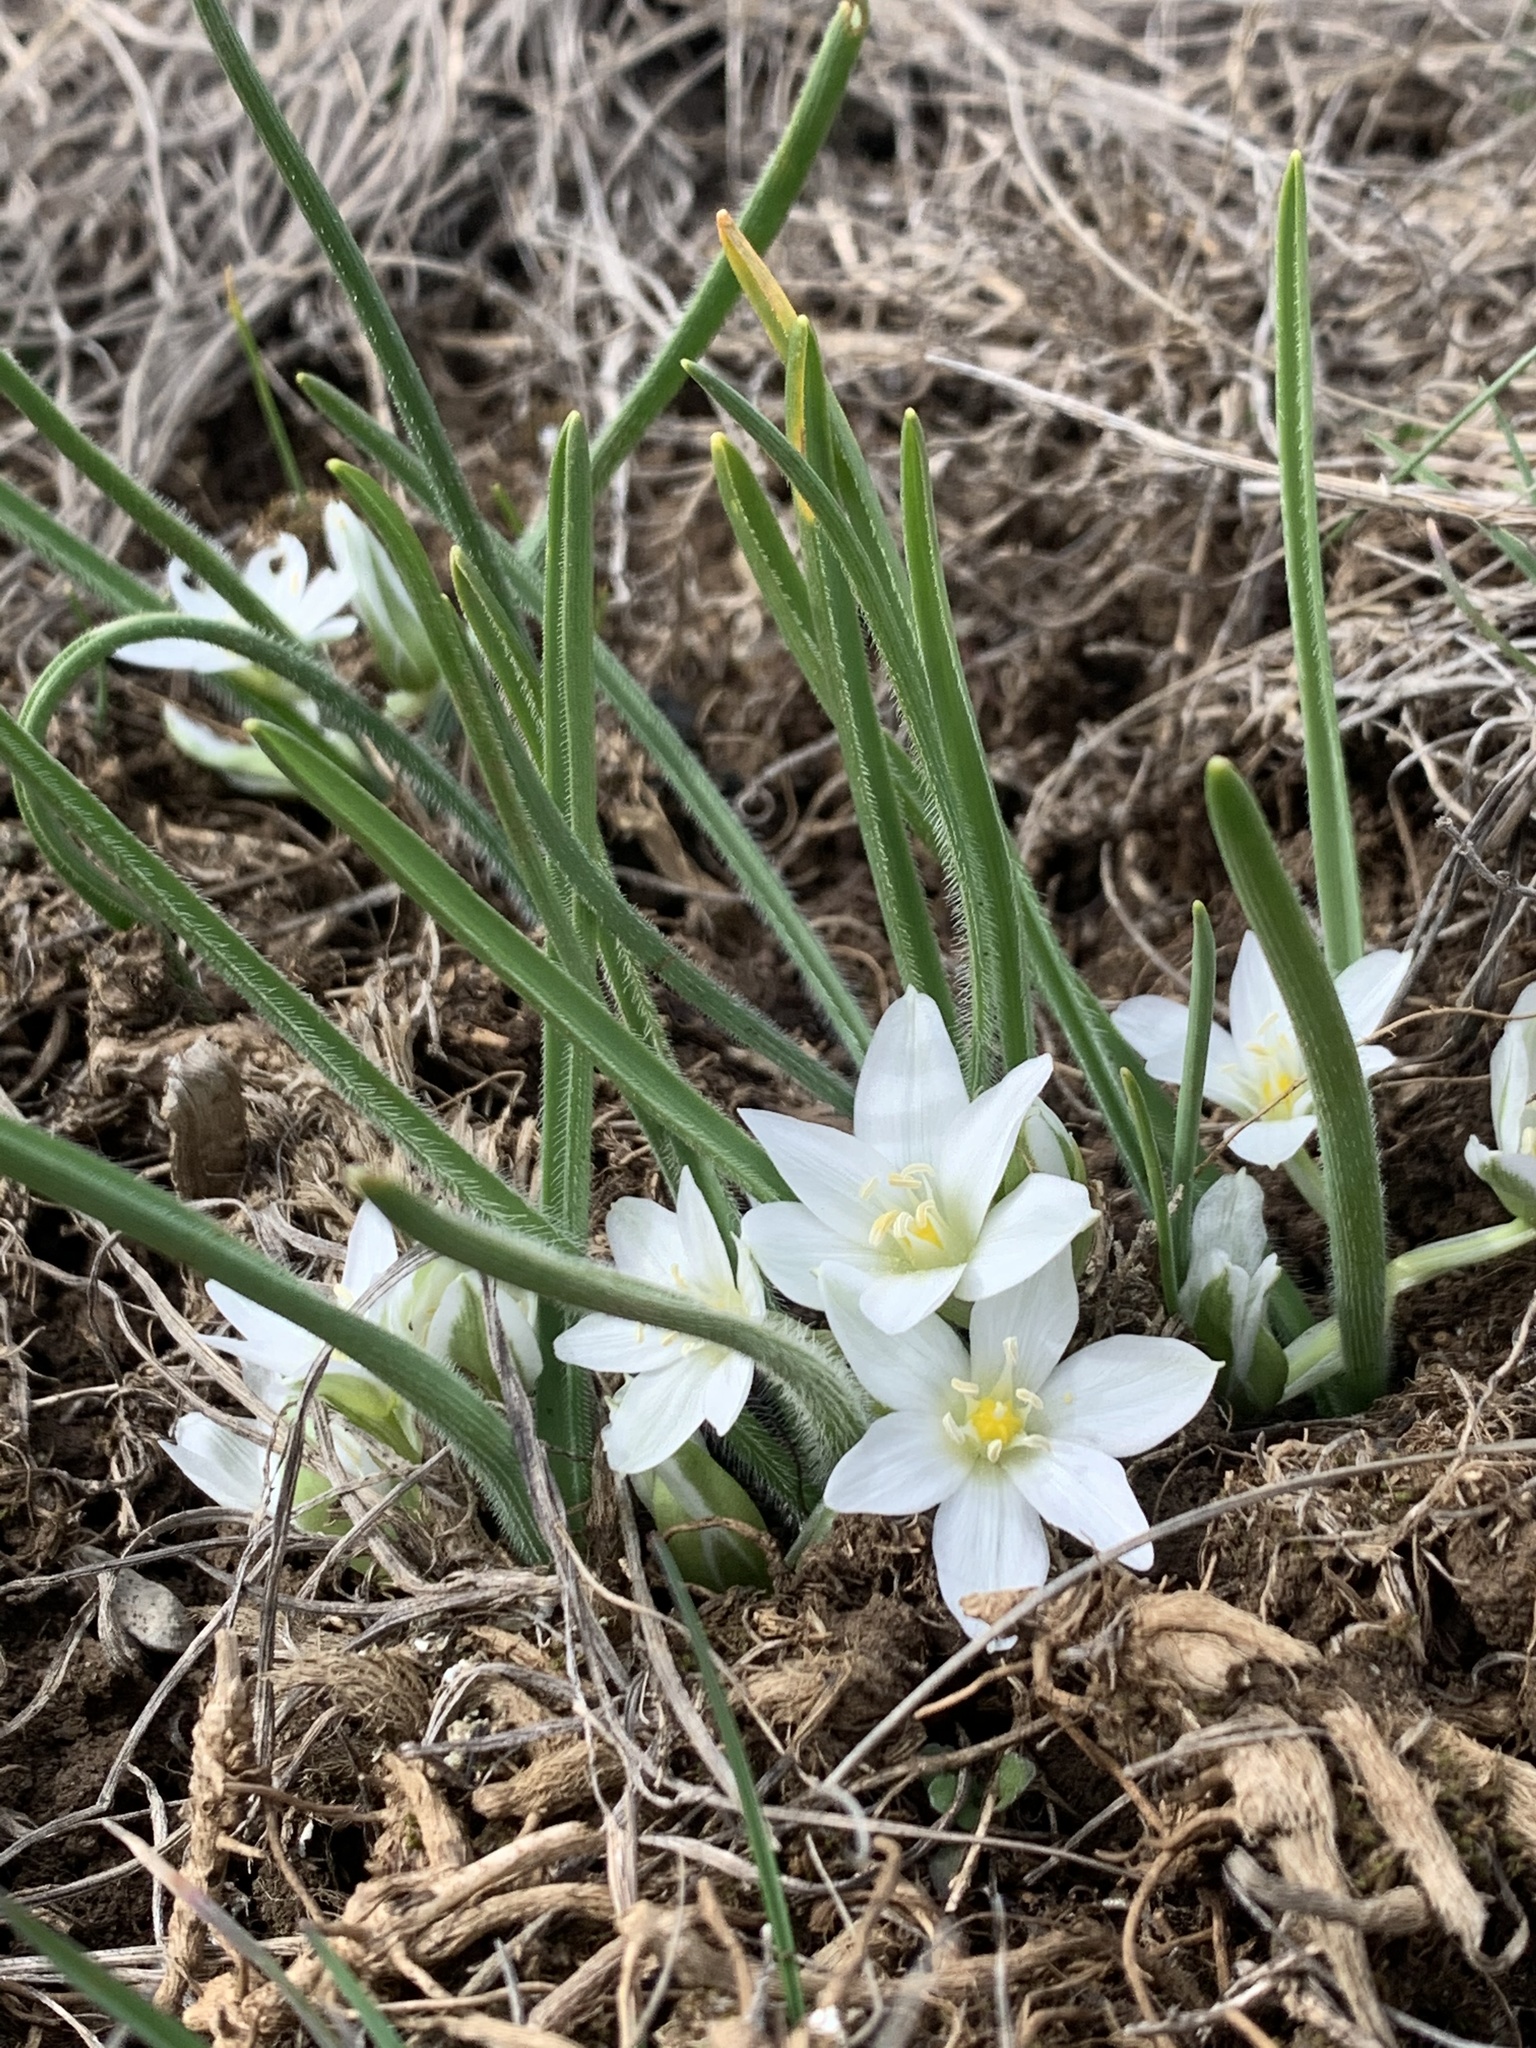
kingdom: Plantae
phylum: Tracheophyta
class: Liliopsida
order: Asparagales
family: Asparagaceae
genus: Ornithogalum
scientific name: Ornithogalum fimbriatum
